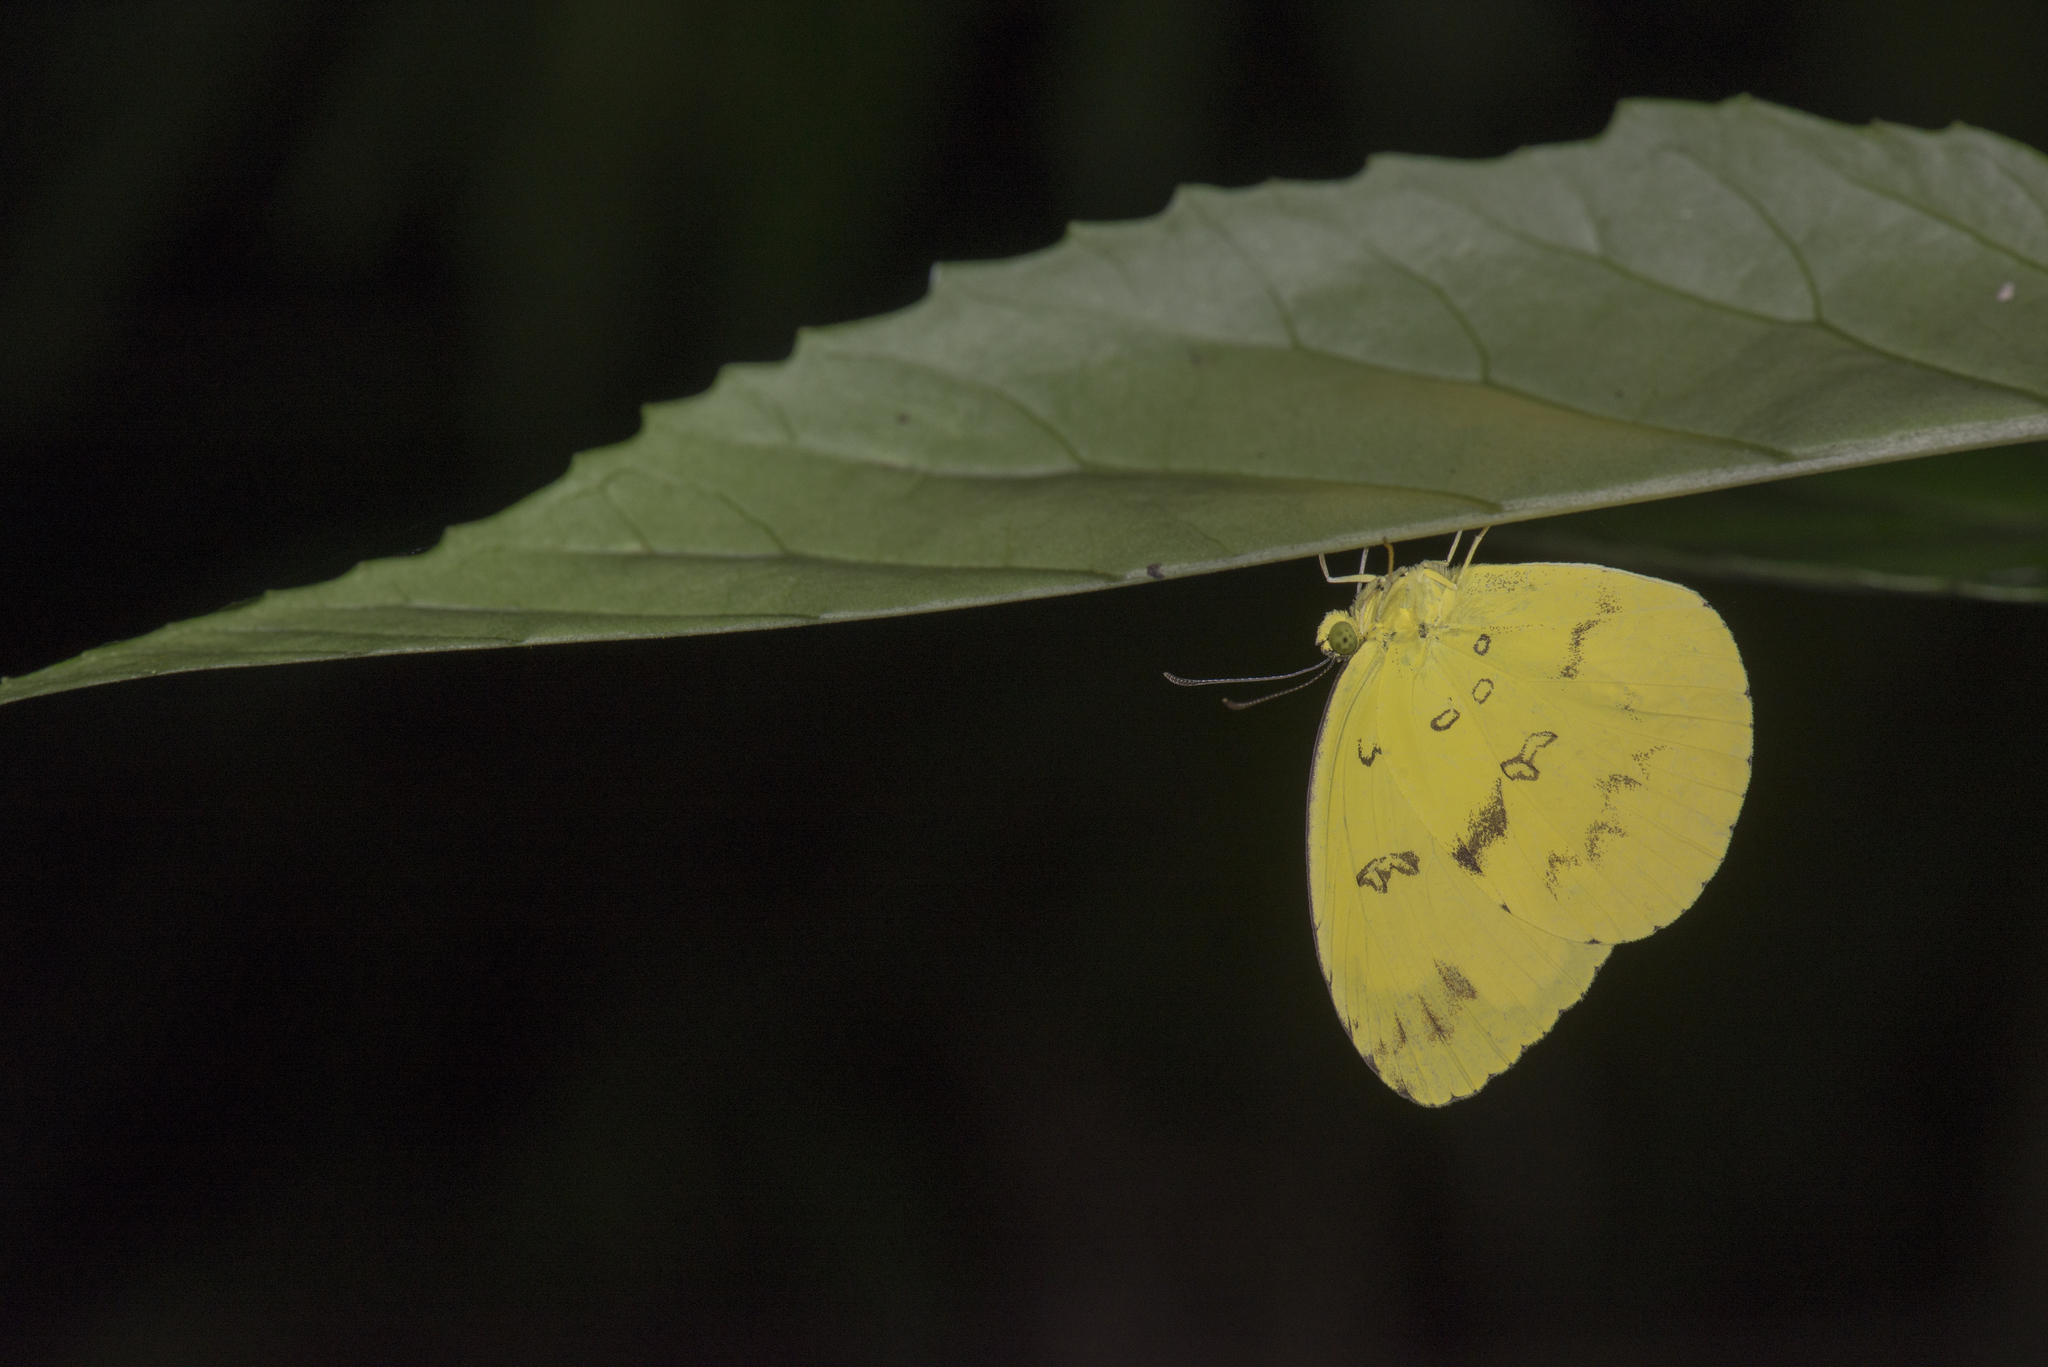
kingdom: Animalia
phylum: Arthropoda
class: Insecta
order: Lepidoptera
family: Pieridae
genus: Eurema
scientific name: Eurema andersoni
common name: One-spot yellow grass
